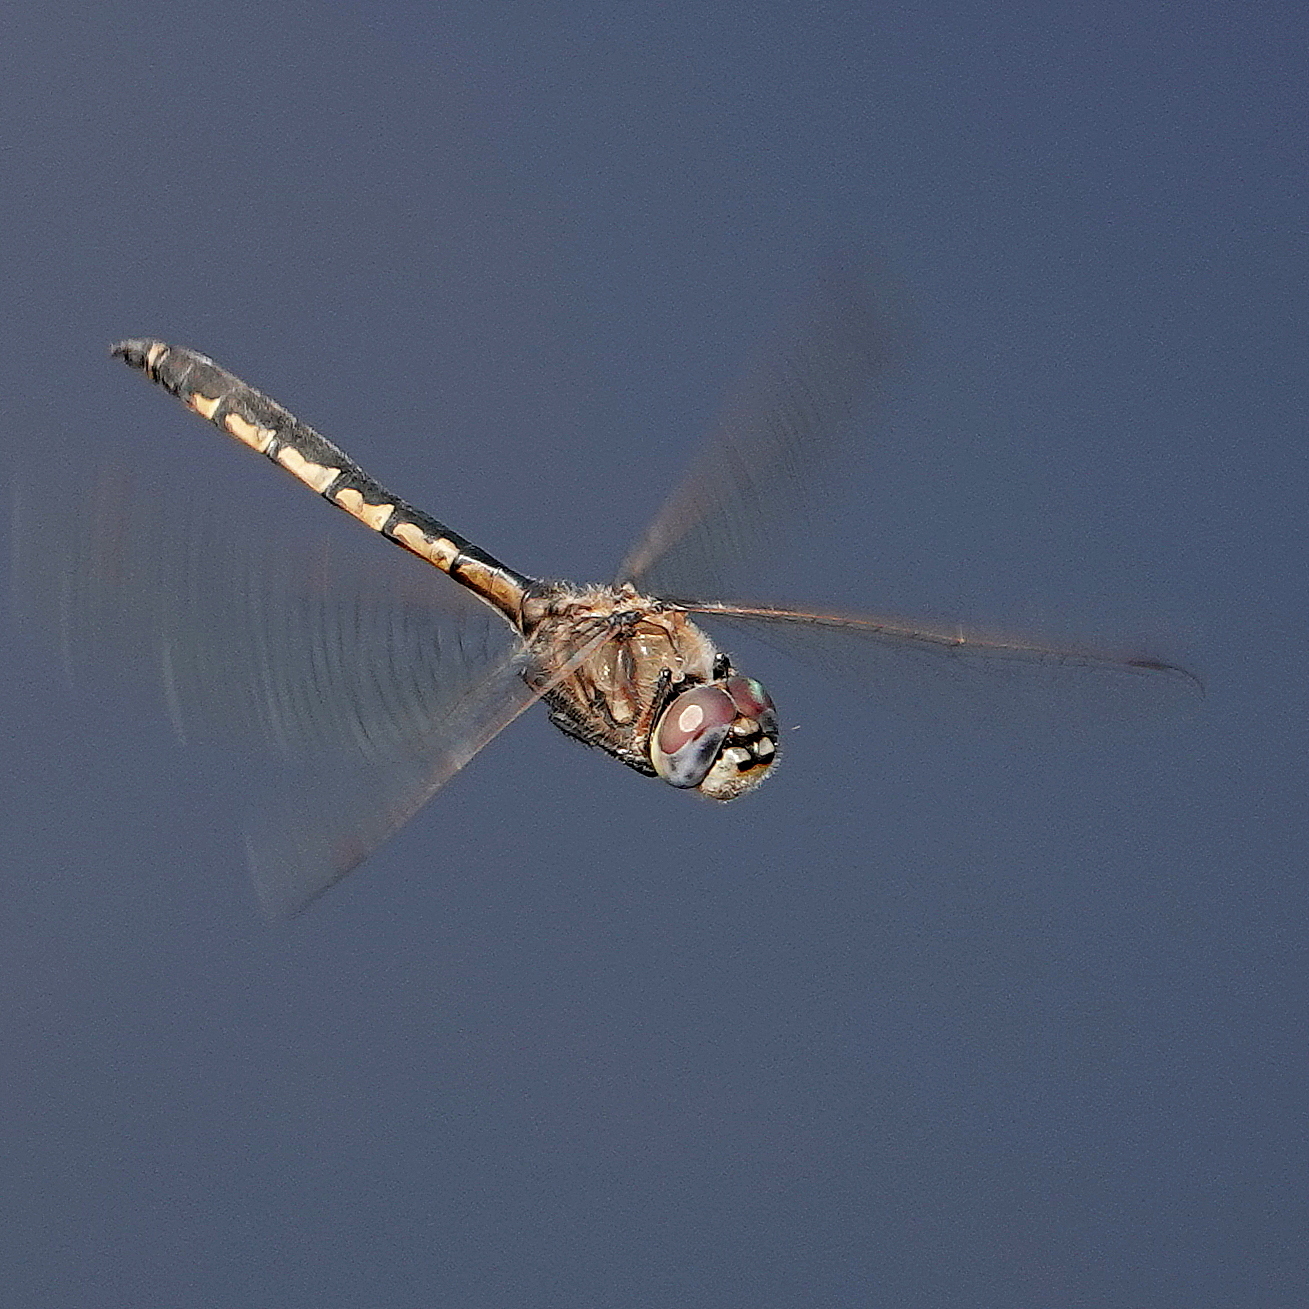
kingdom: Animalia
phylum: Arthropoda
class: Insecta
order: Odonata
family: Corduliidae
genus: Hemicordulia
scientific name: Hemicordulia tau
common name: Tau emerald
